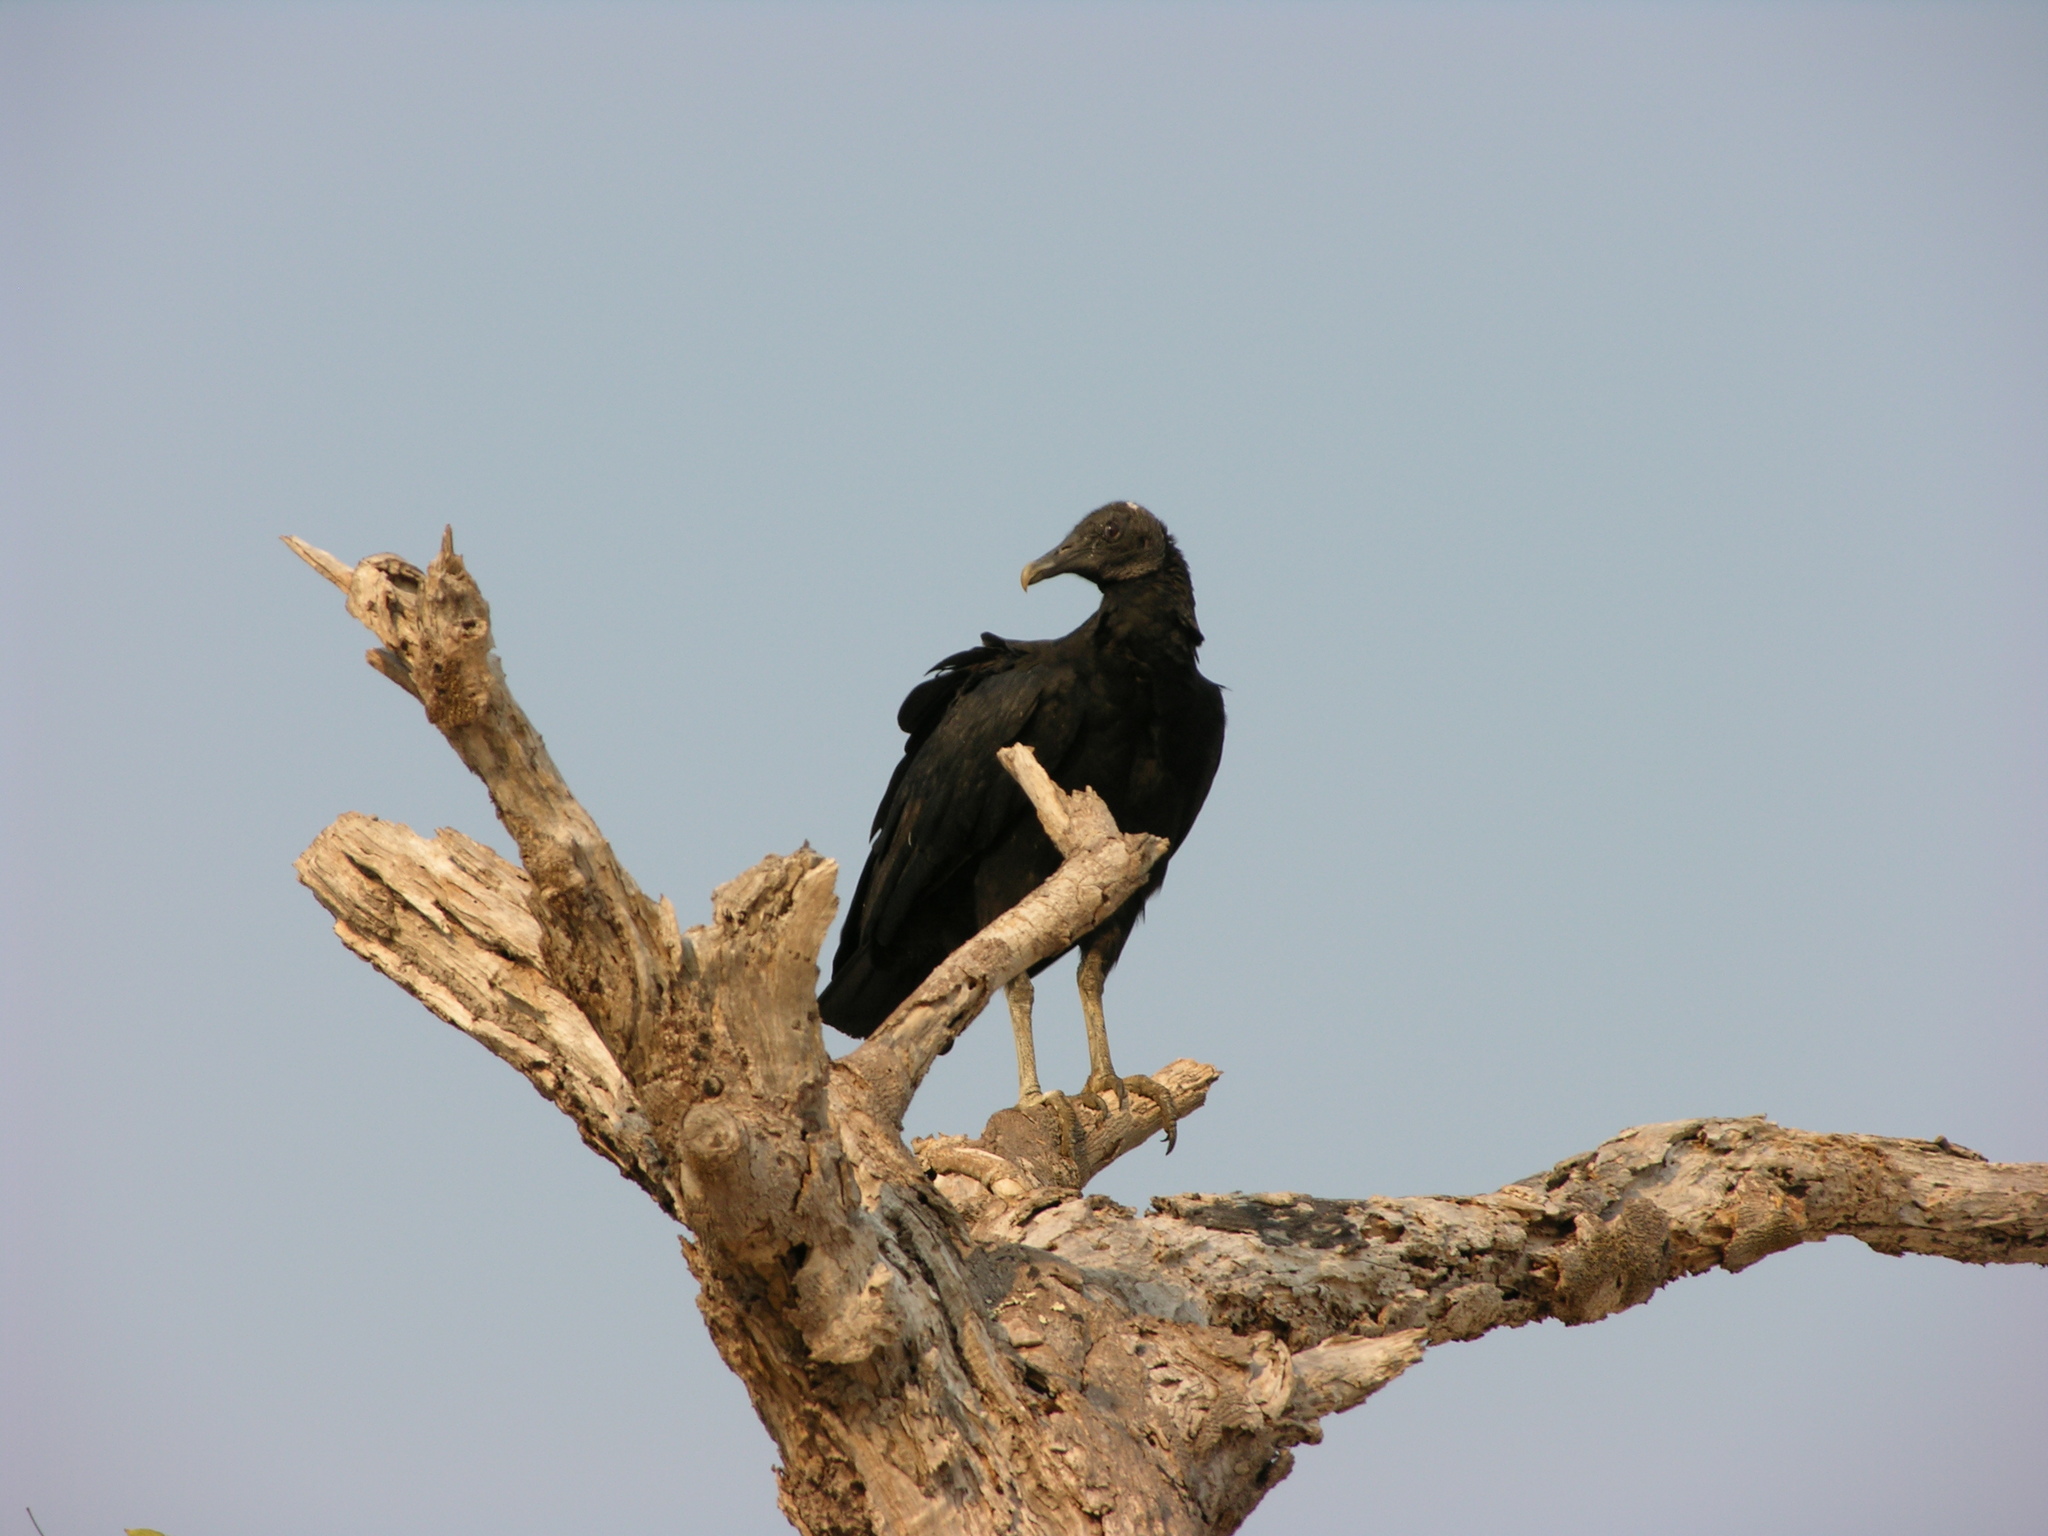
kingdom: Animalia
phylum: Chordata
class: Aves
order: Accipitriformes
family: Cathartidae
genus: Coragyps
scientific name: Coragyps atratus
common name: Black vulture
